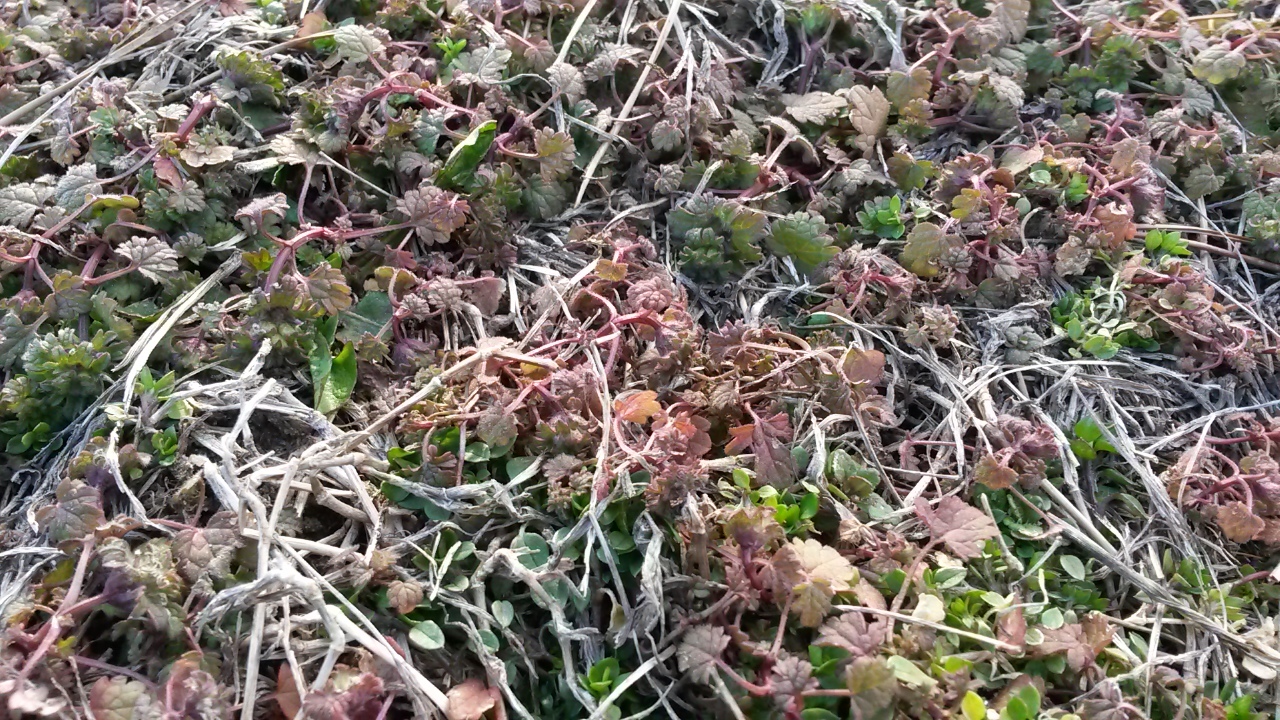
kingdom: Plantae
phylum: Tracheophyta
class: Magnoliopsida
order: Lamiales
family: Lamiaceae
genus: Lamium
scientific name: Lamium amplexicaule
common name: Henbit dead-nettle
